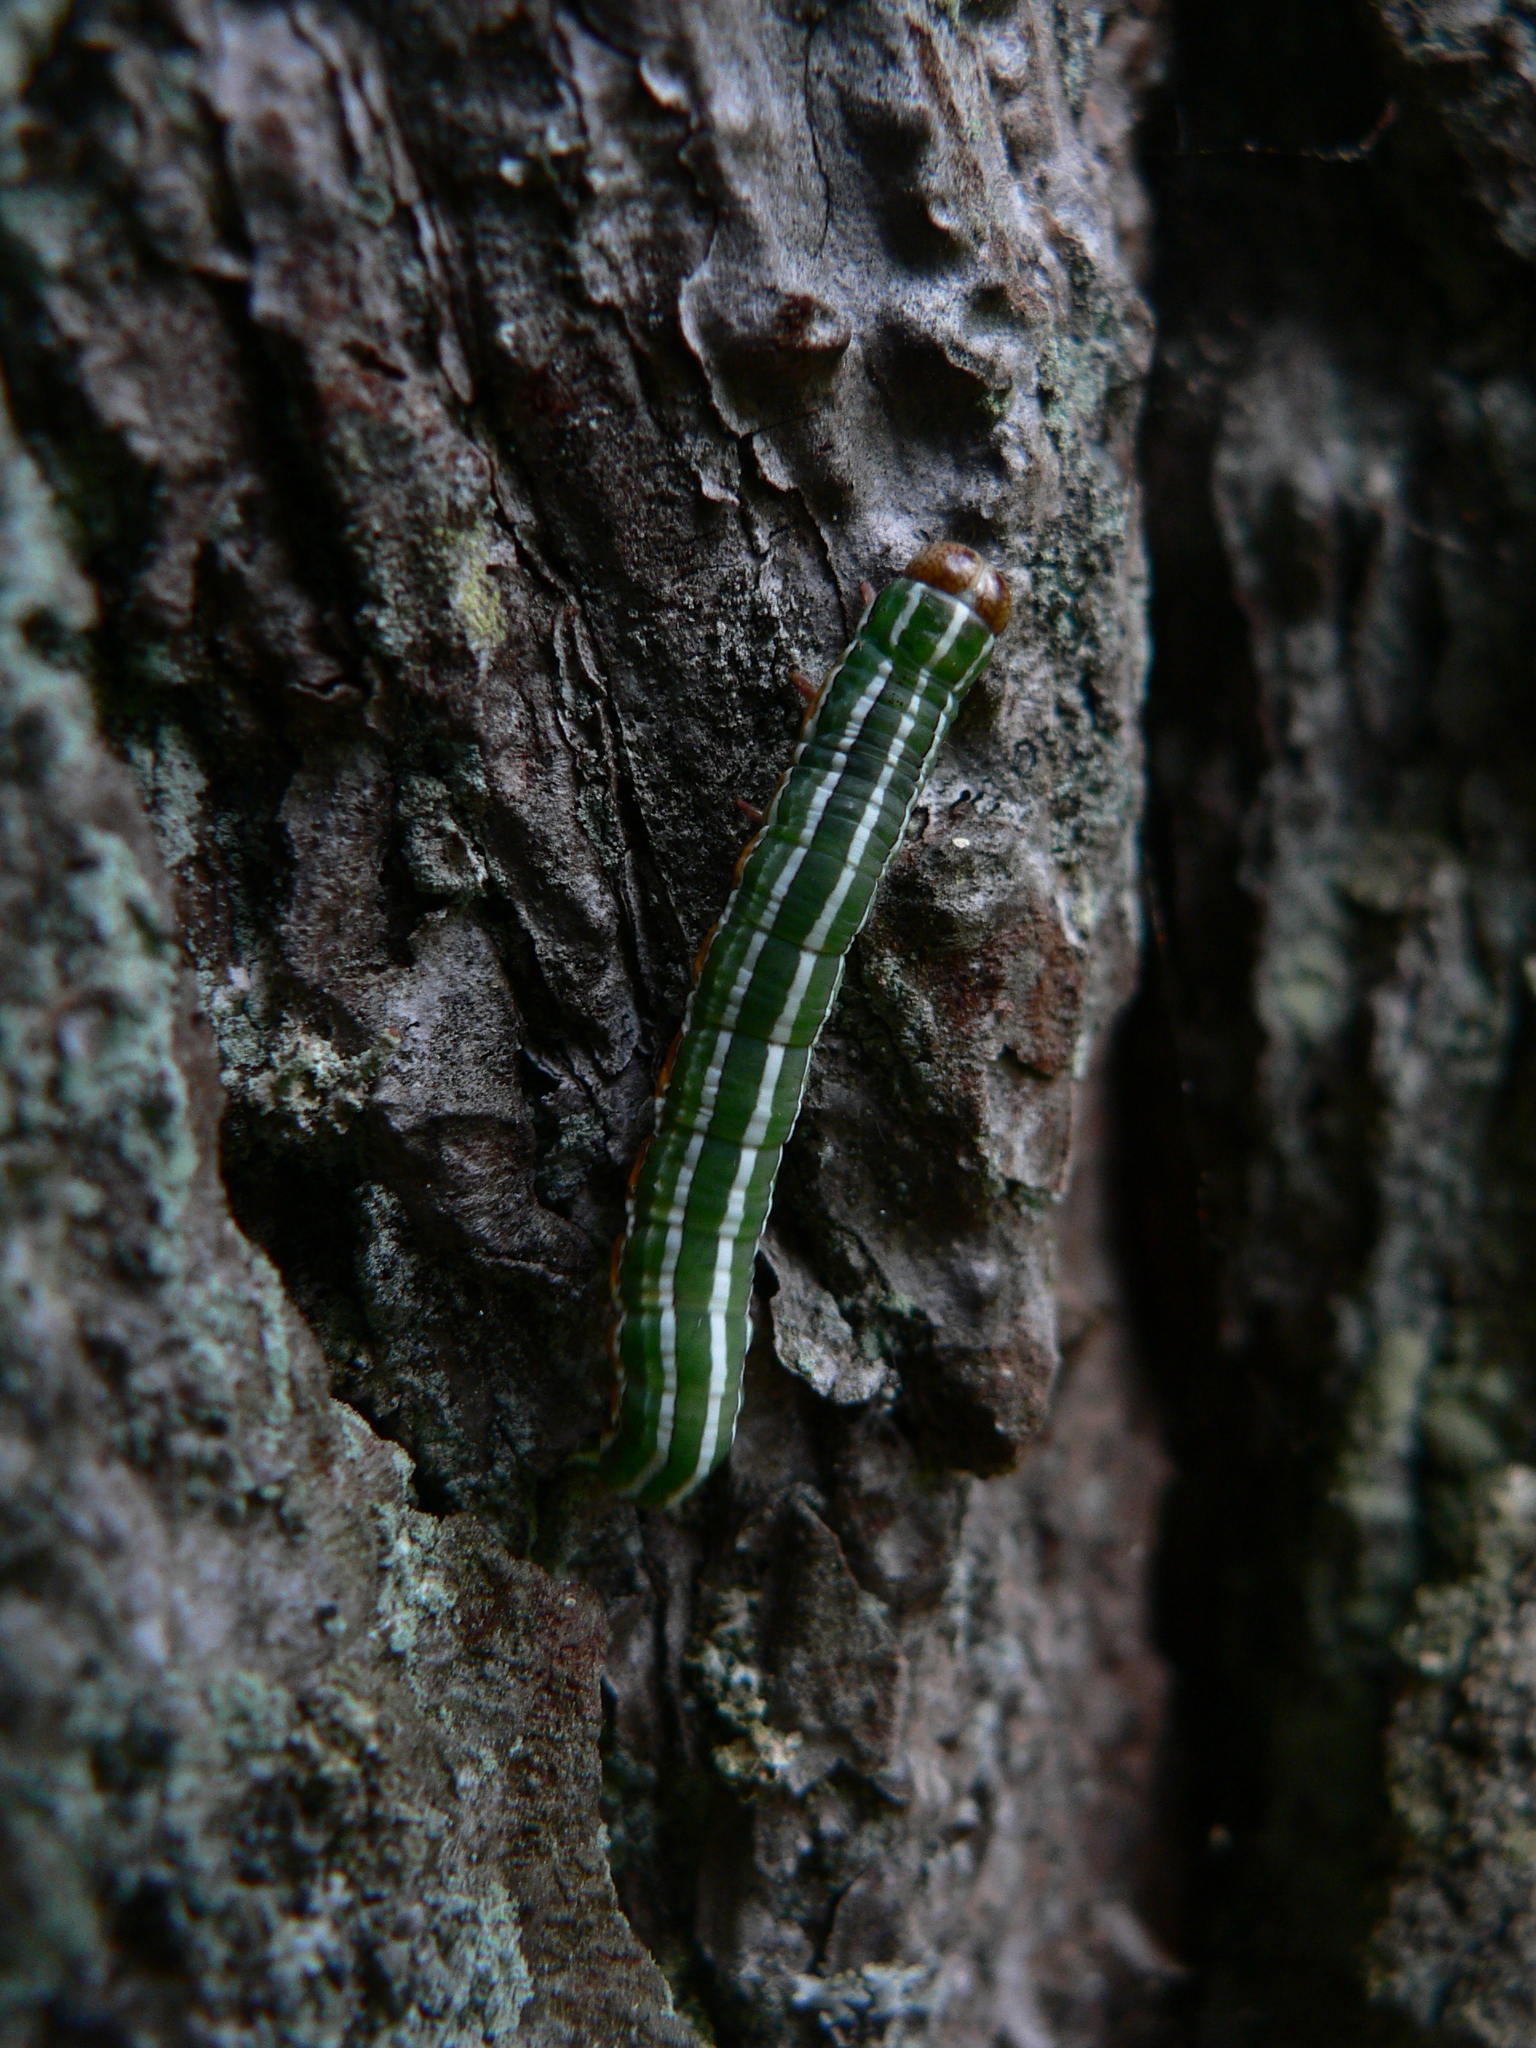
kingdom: Animalia
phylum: Arthropoda
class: Insecta
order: Lepidoptera
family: Noctuidae
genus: Panolis
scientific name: Panolis flammea
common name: Pine beauty
